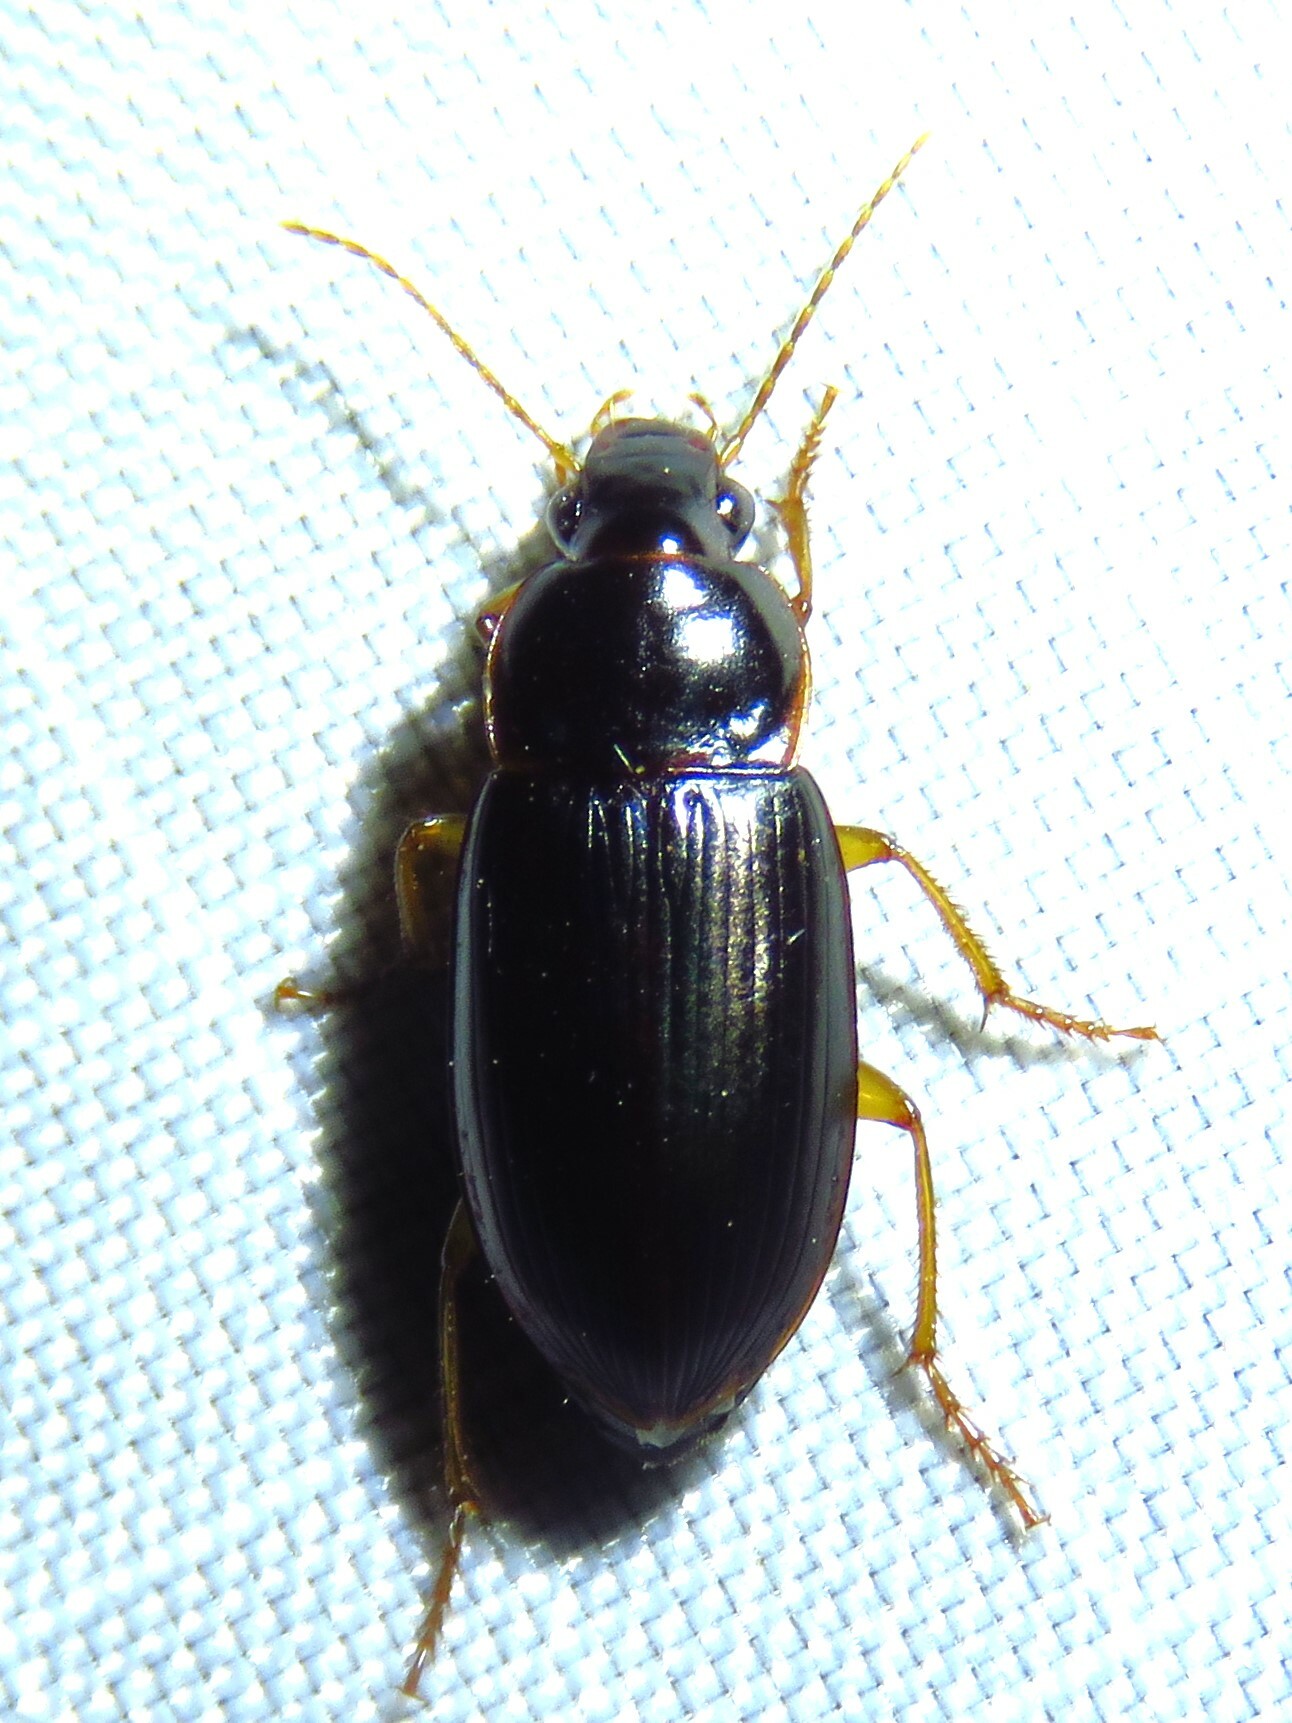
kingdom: Animalia
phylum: Arthropoda
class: Insecta
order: Coleoptera
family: Carabidae
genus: Notiobia
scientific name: Notiobia terminata
